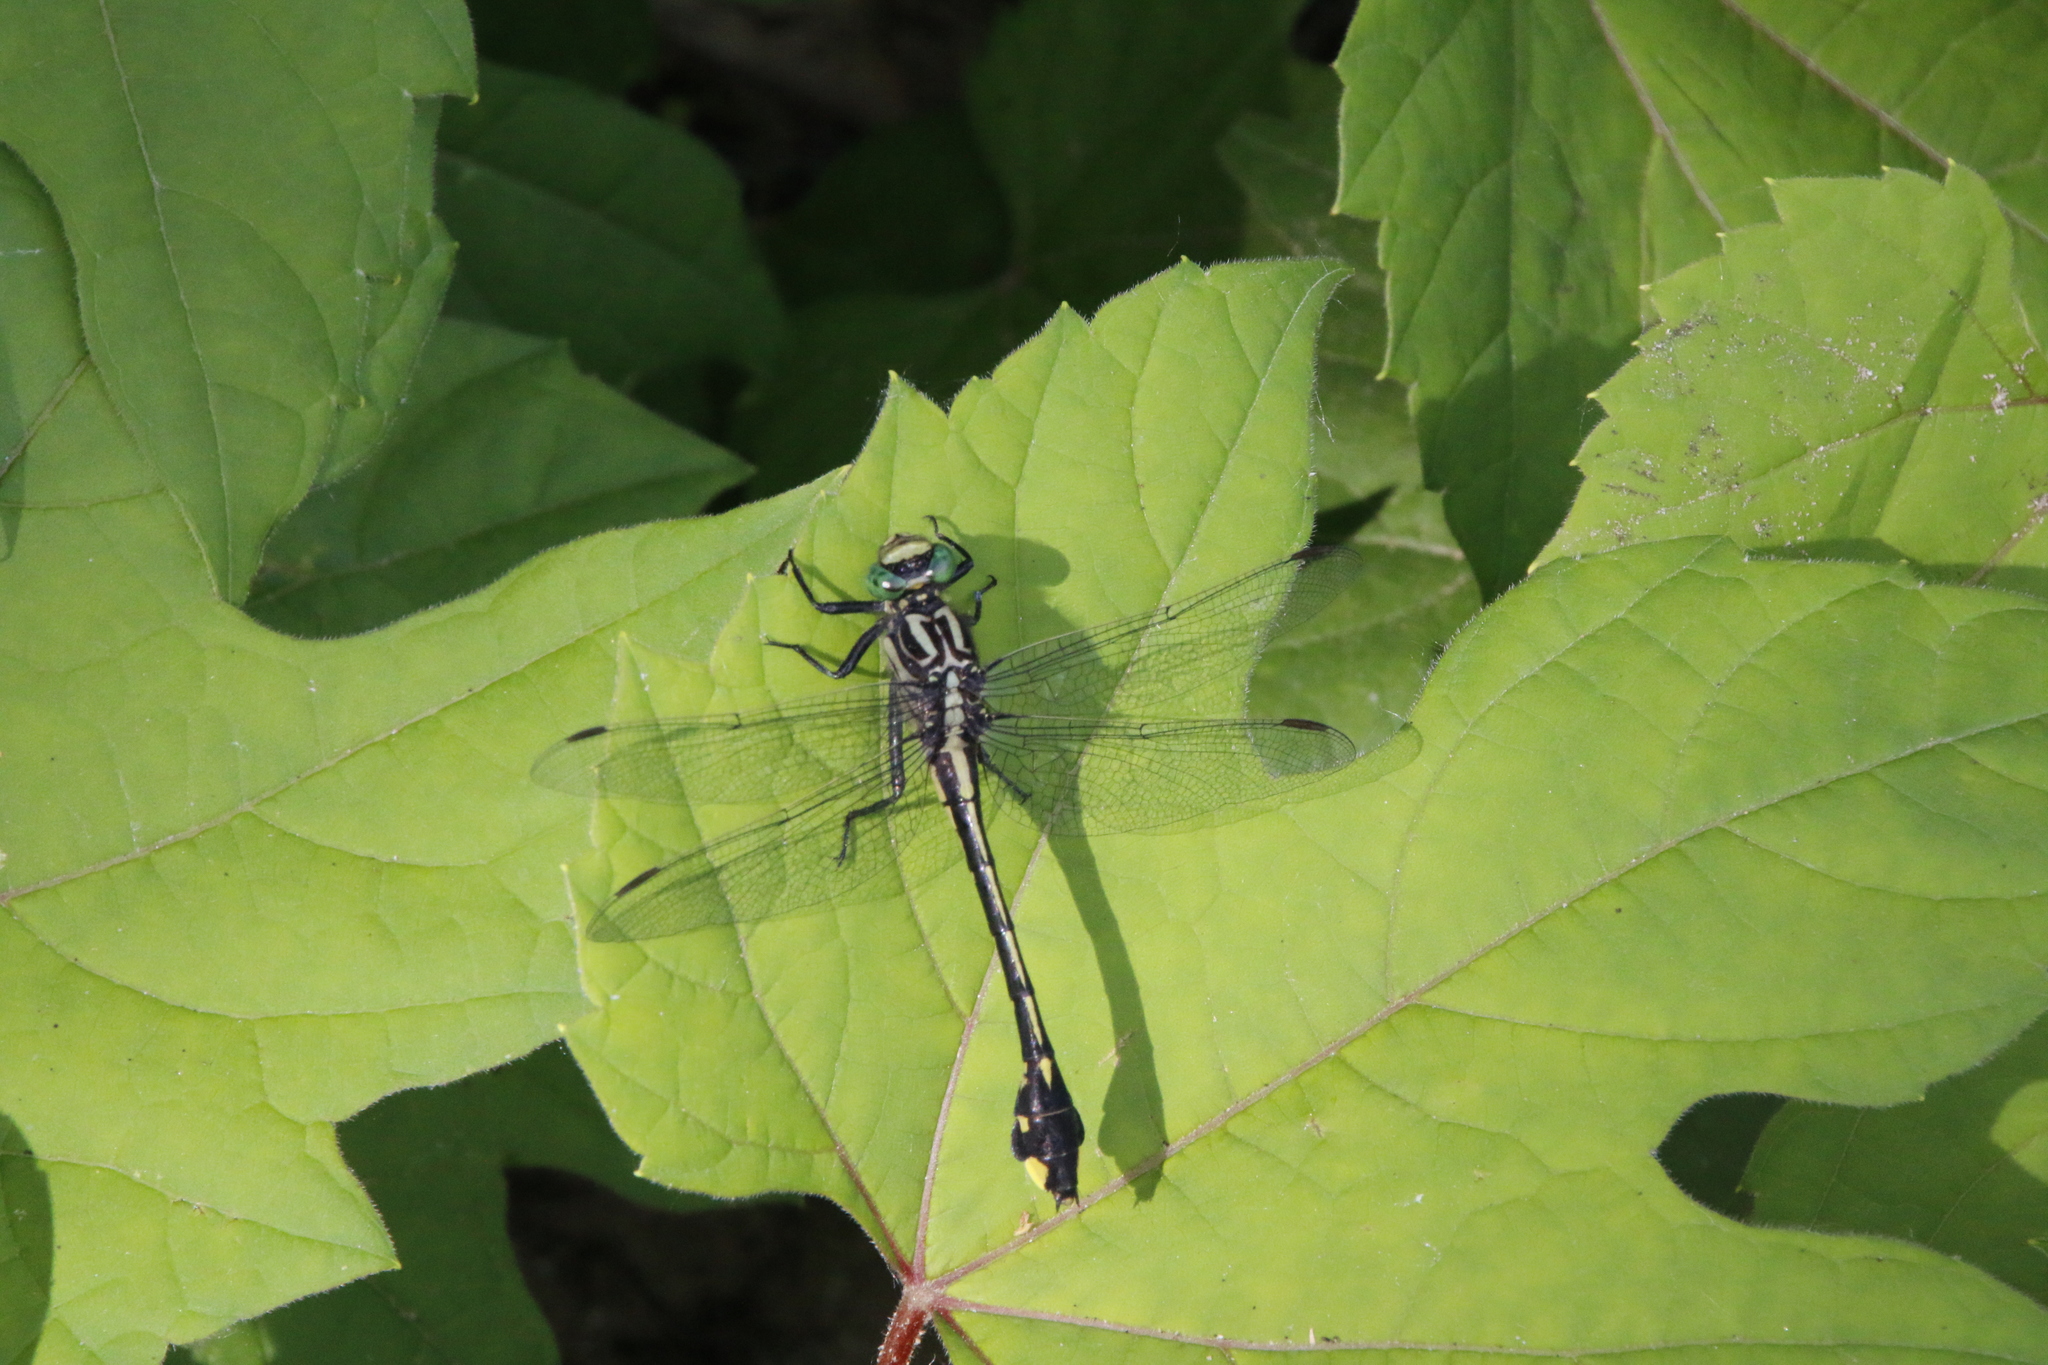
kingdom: Animalia
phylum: Arthropoda
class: Insecta
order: Odonata
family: Gomphidae
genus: Gomphurus
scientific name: Gomphurus vastus
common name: Cobra clubtail
